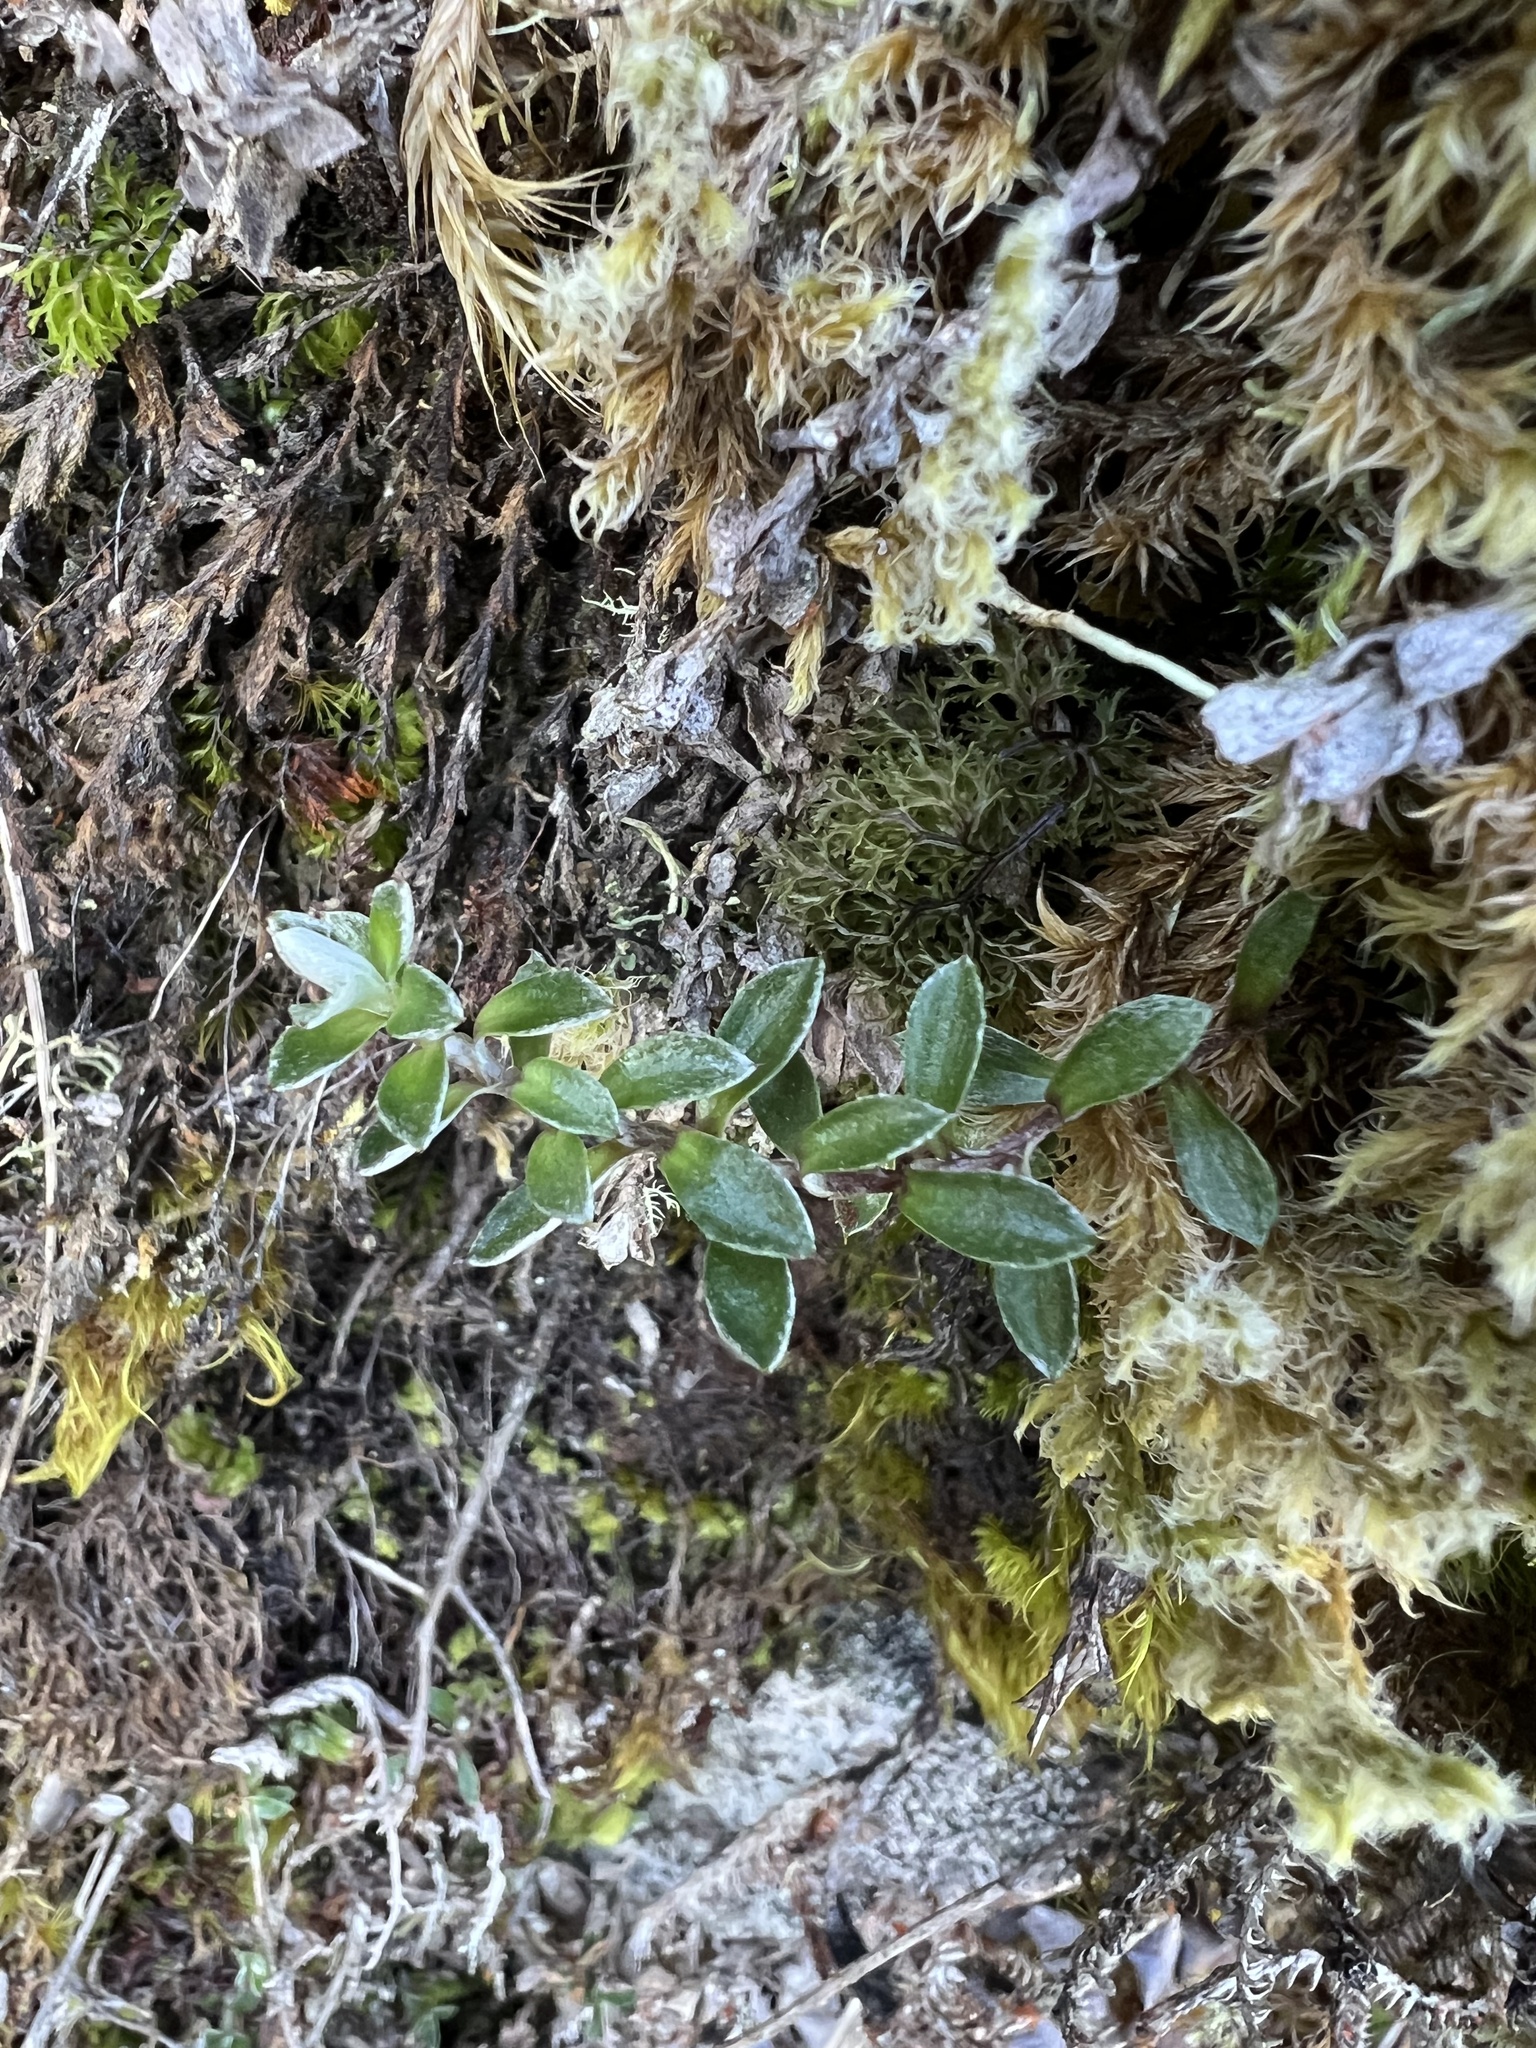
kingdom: Plantae
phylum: Tracheophyta
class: Magnoliopsida
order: Asterales
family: Asteraceae
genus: Anaphalioides
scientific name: Anaphalioides alpina
